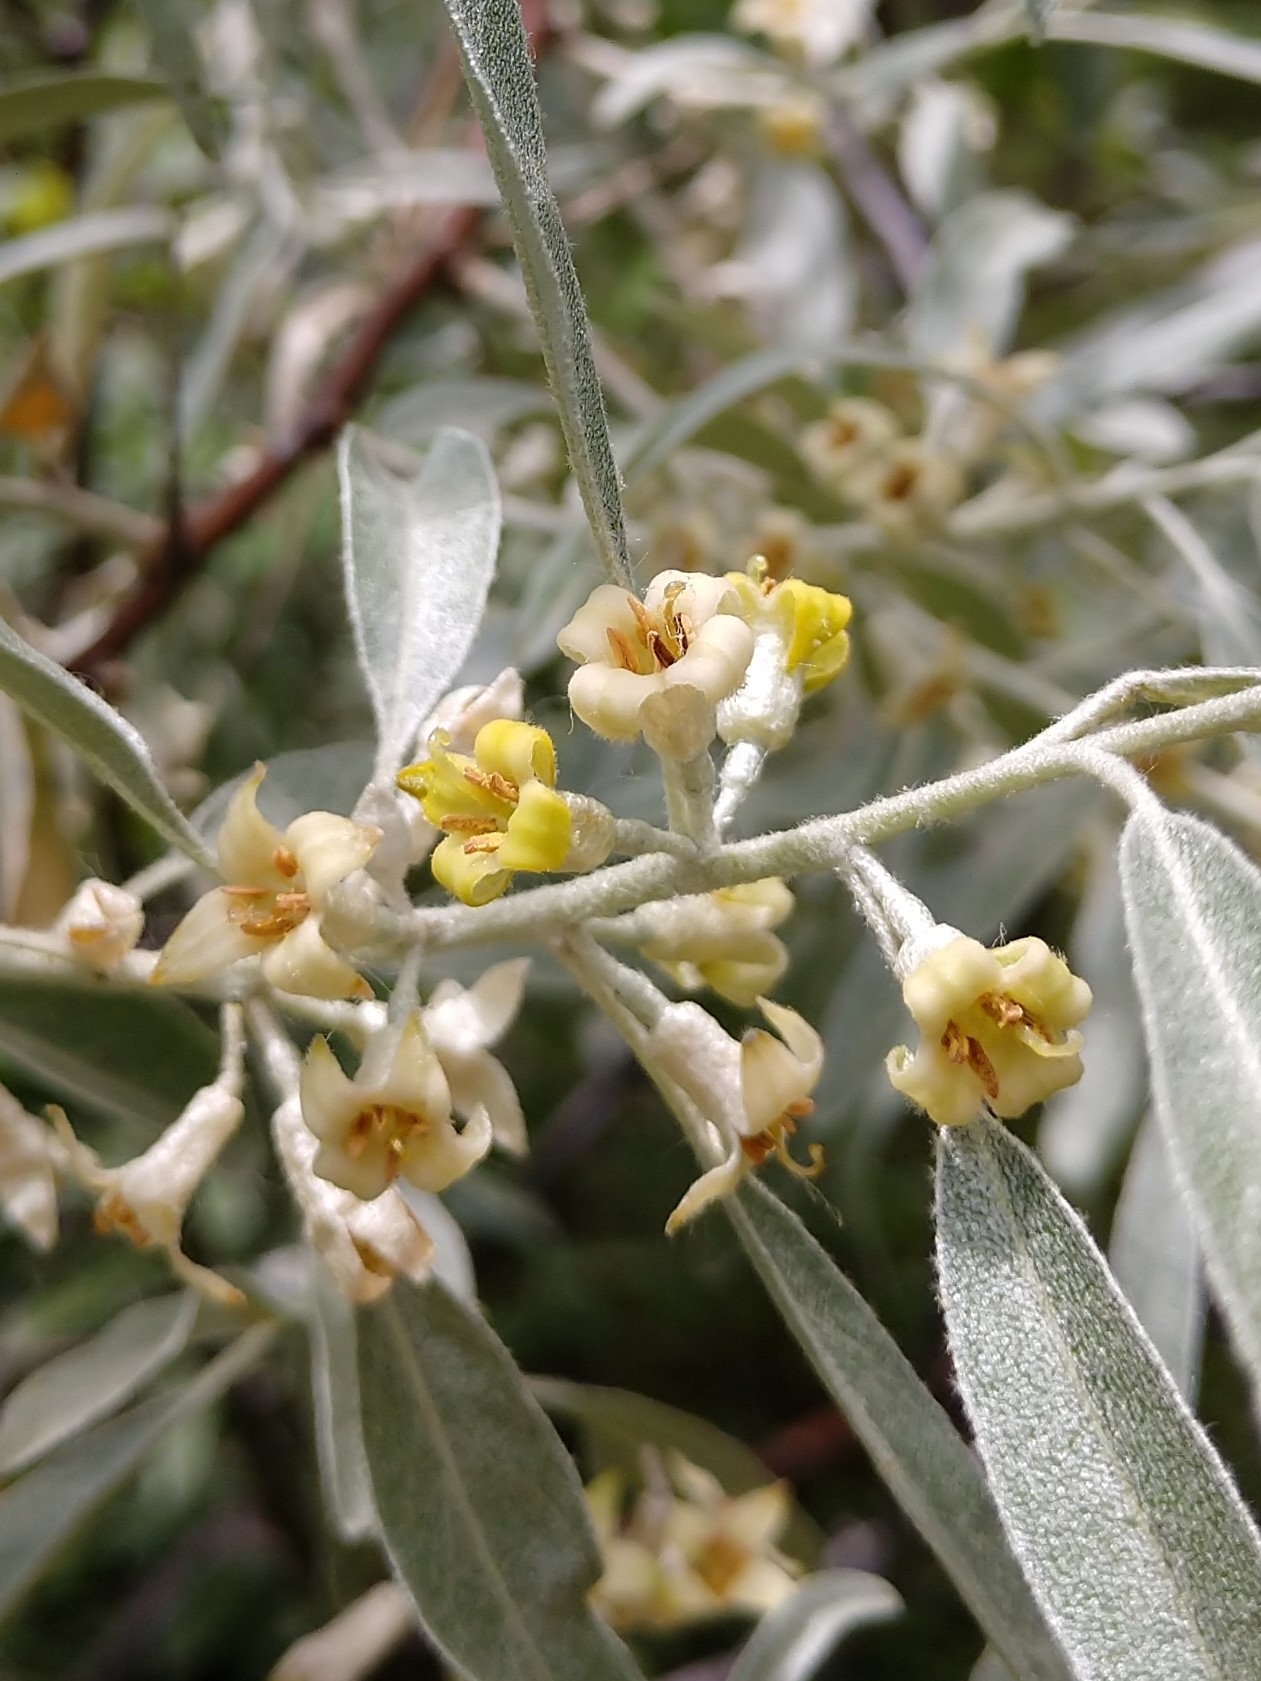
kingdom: Plantae
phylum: Tracheophyta
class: Magnoliopsida
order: Rosales
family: Elaeagnaceae
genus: Elaeagnus
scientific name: Elaeagnus angustifolia
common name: Russian olive
